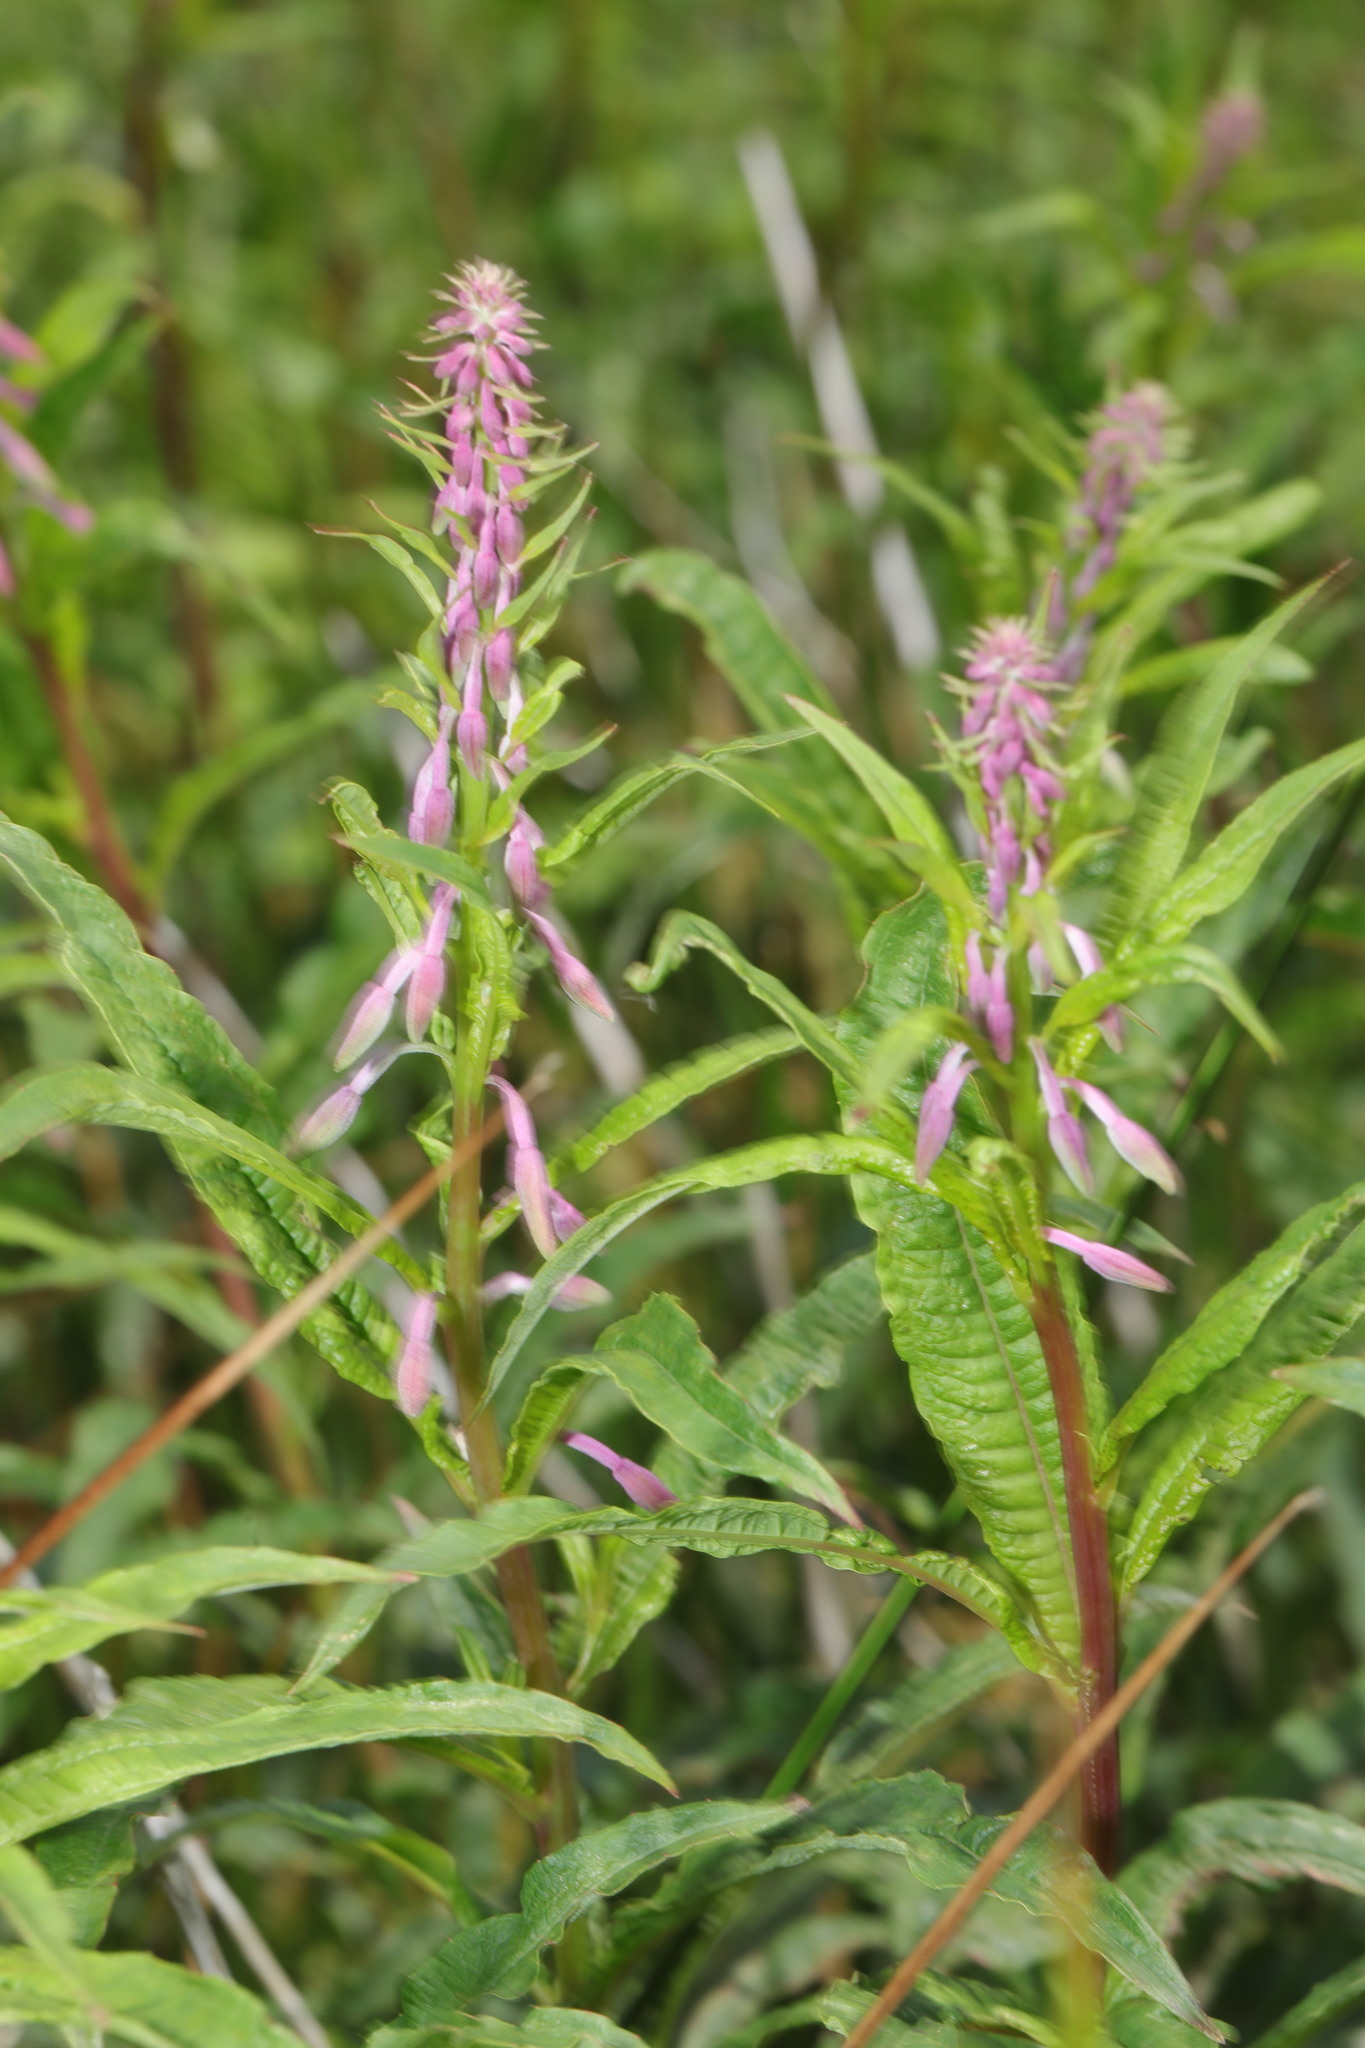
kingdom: Plantae
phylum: Tracheophyta
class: Magnoliopsida
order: Myrtales
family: Onagraceae
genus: Chamaenerion
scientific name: Chamaenerion angustifolium
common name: Fireweed
